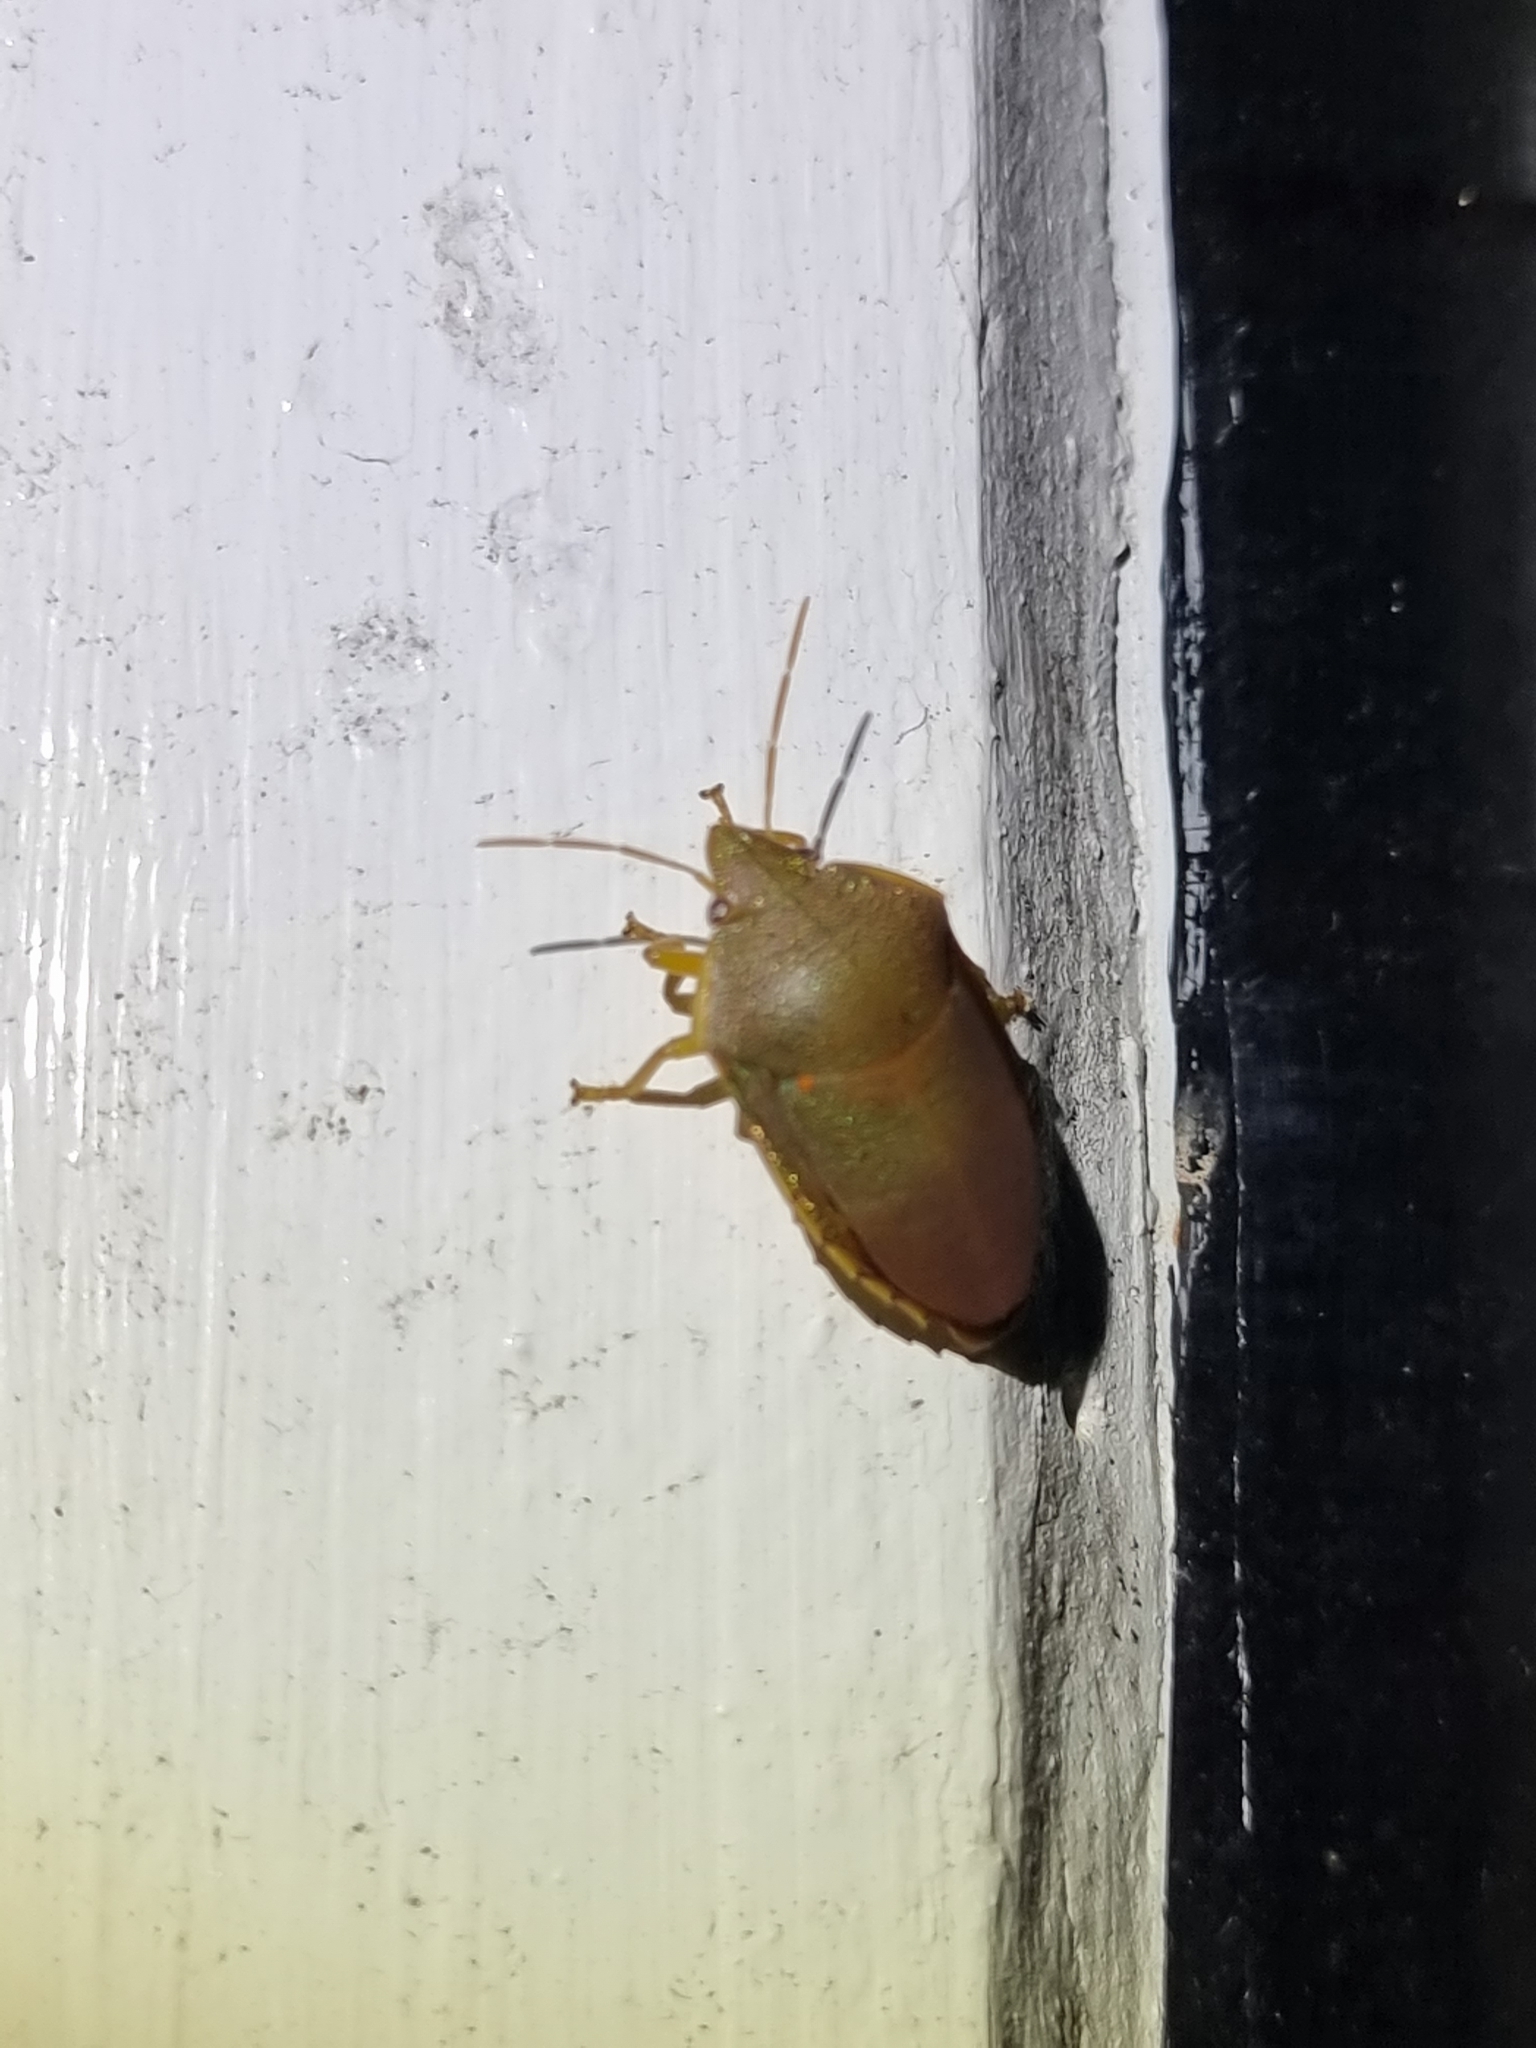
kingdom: Animalia
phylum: Arthropoda
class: Insecta
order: Hemiptera
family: Pentatomidae
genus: Coleotichus
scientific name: Coleotichus excellens
